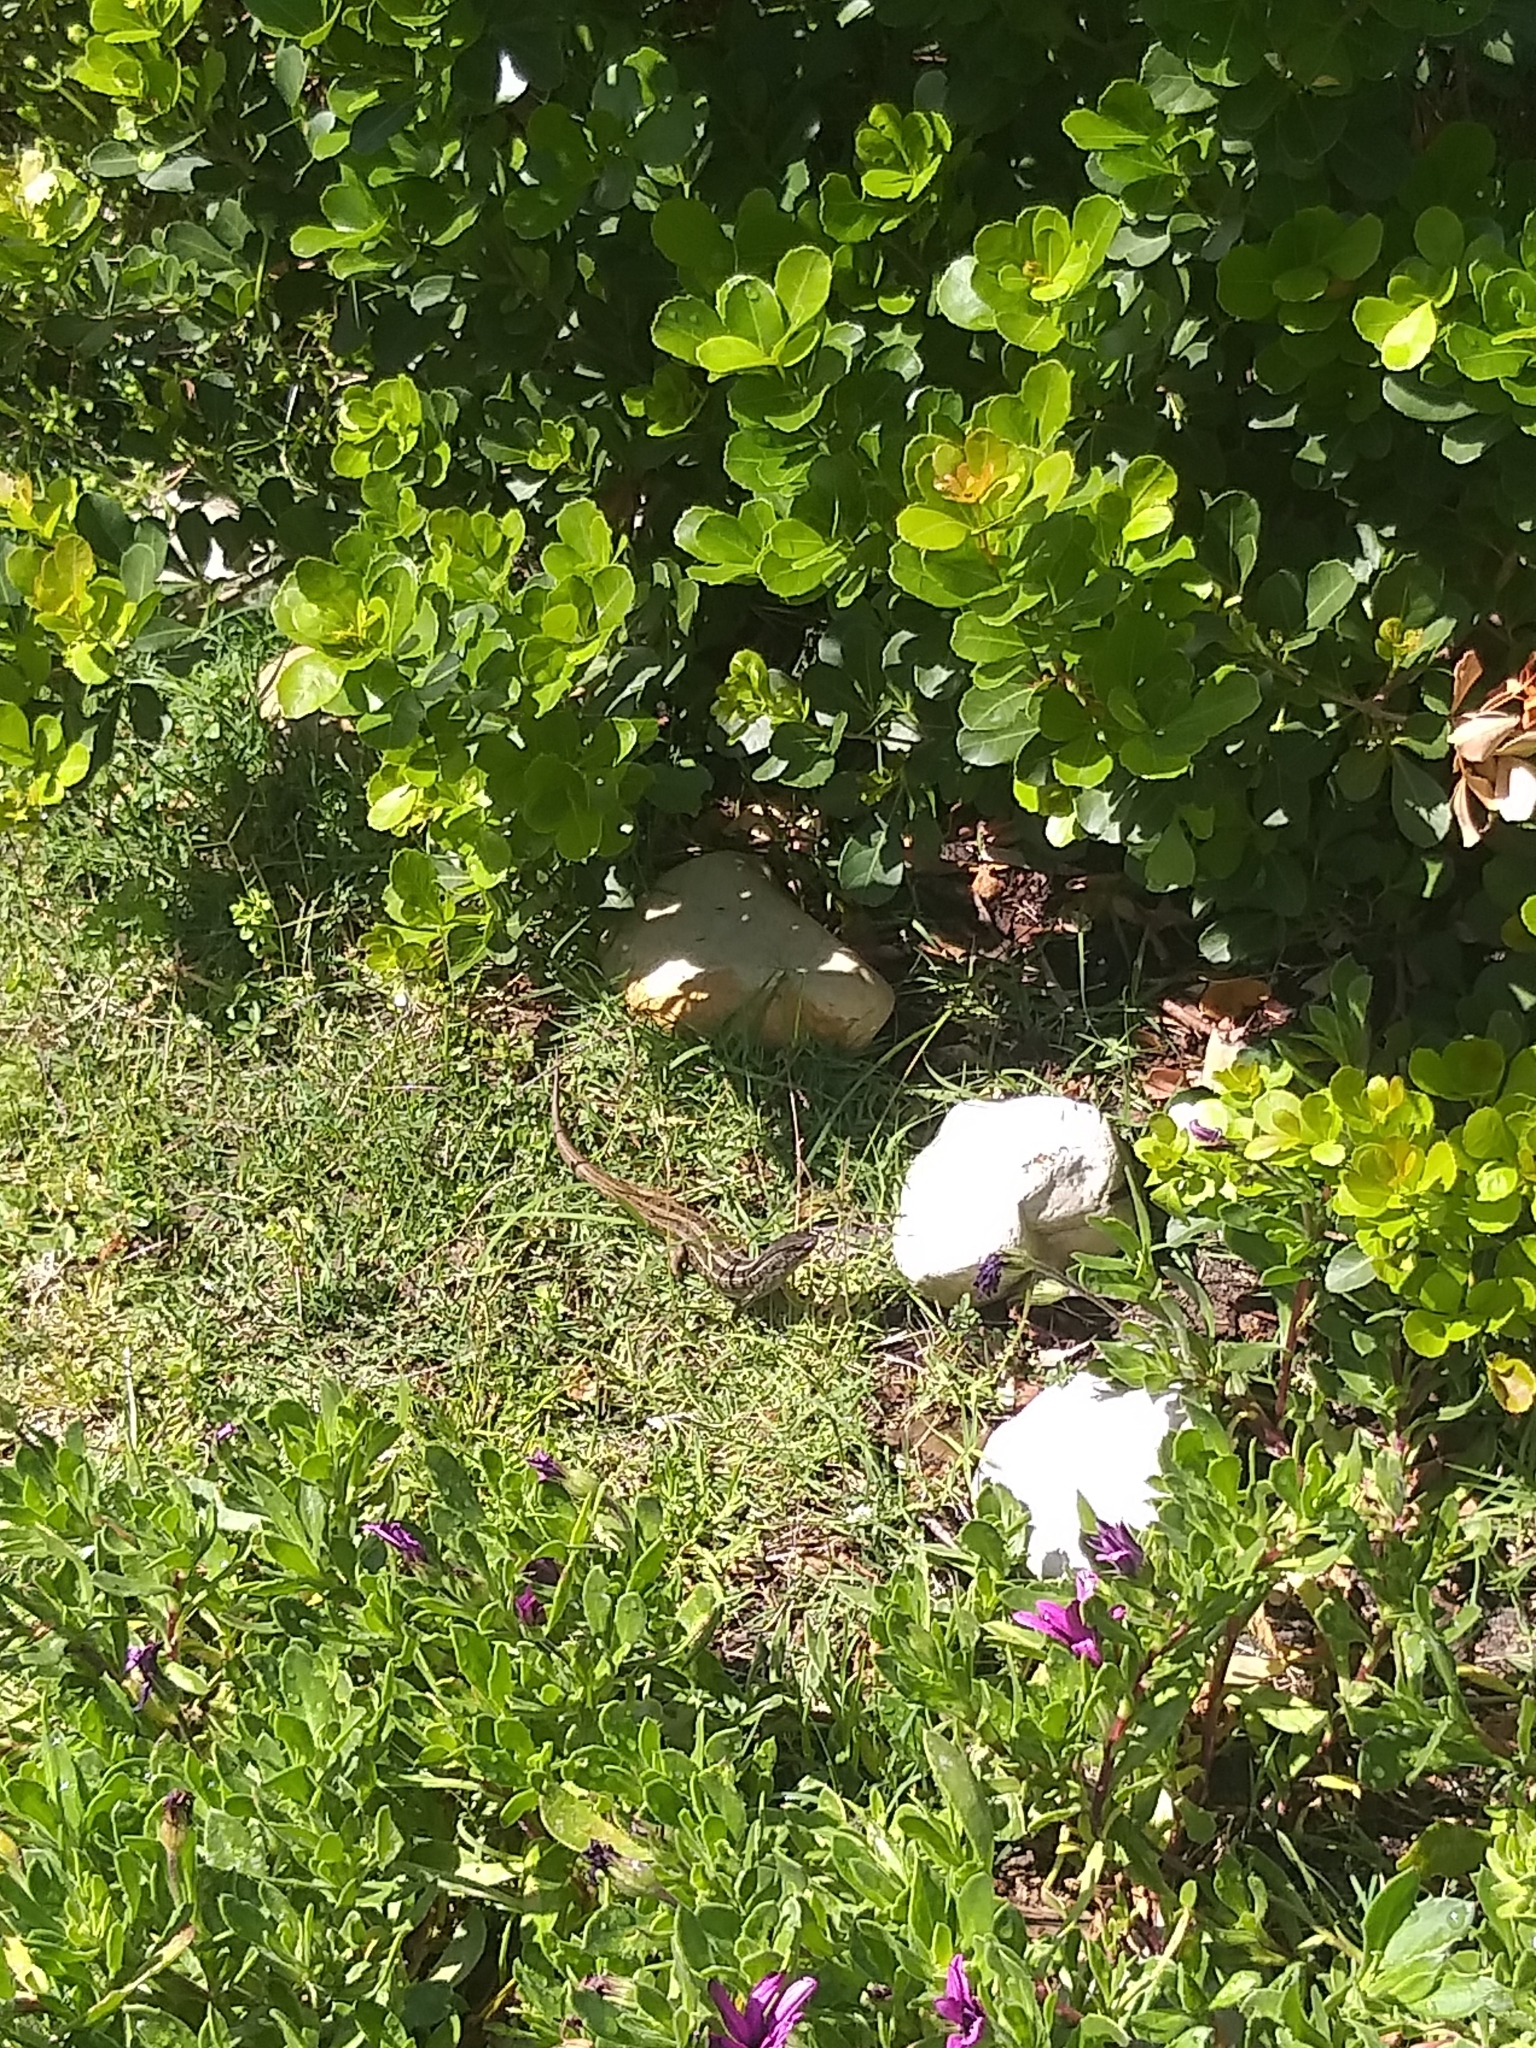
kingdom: Animalia
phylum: Chordata
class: Squamata
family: Scincidae
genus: Trachylepis
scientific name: Trachylepis capensis
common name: Cape skink
